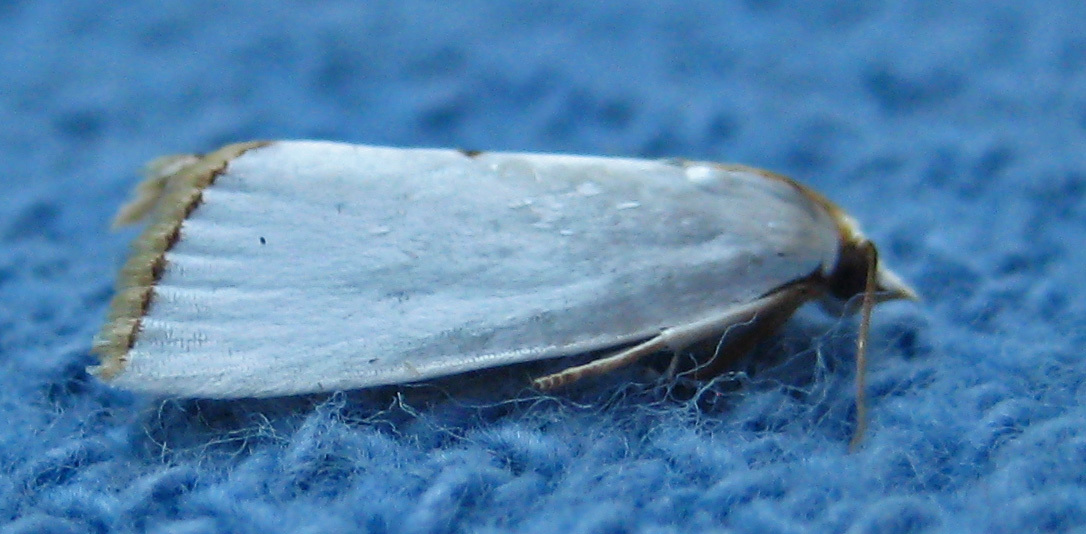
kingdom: Animalia
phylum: Arthropoda
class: Insecta
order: Lepidoptera
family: Crambidae
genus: Argyria
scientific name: Argyria nivalis
